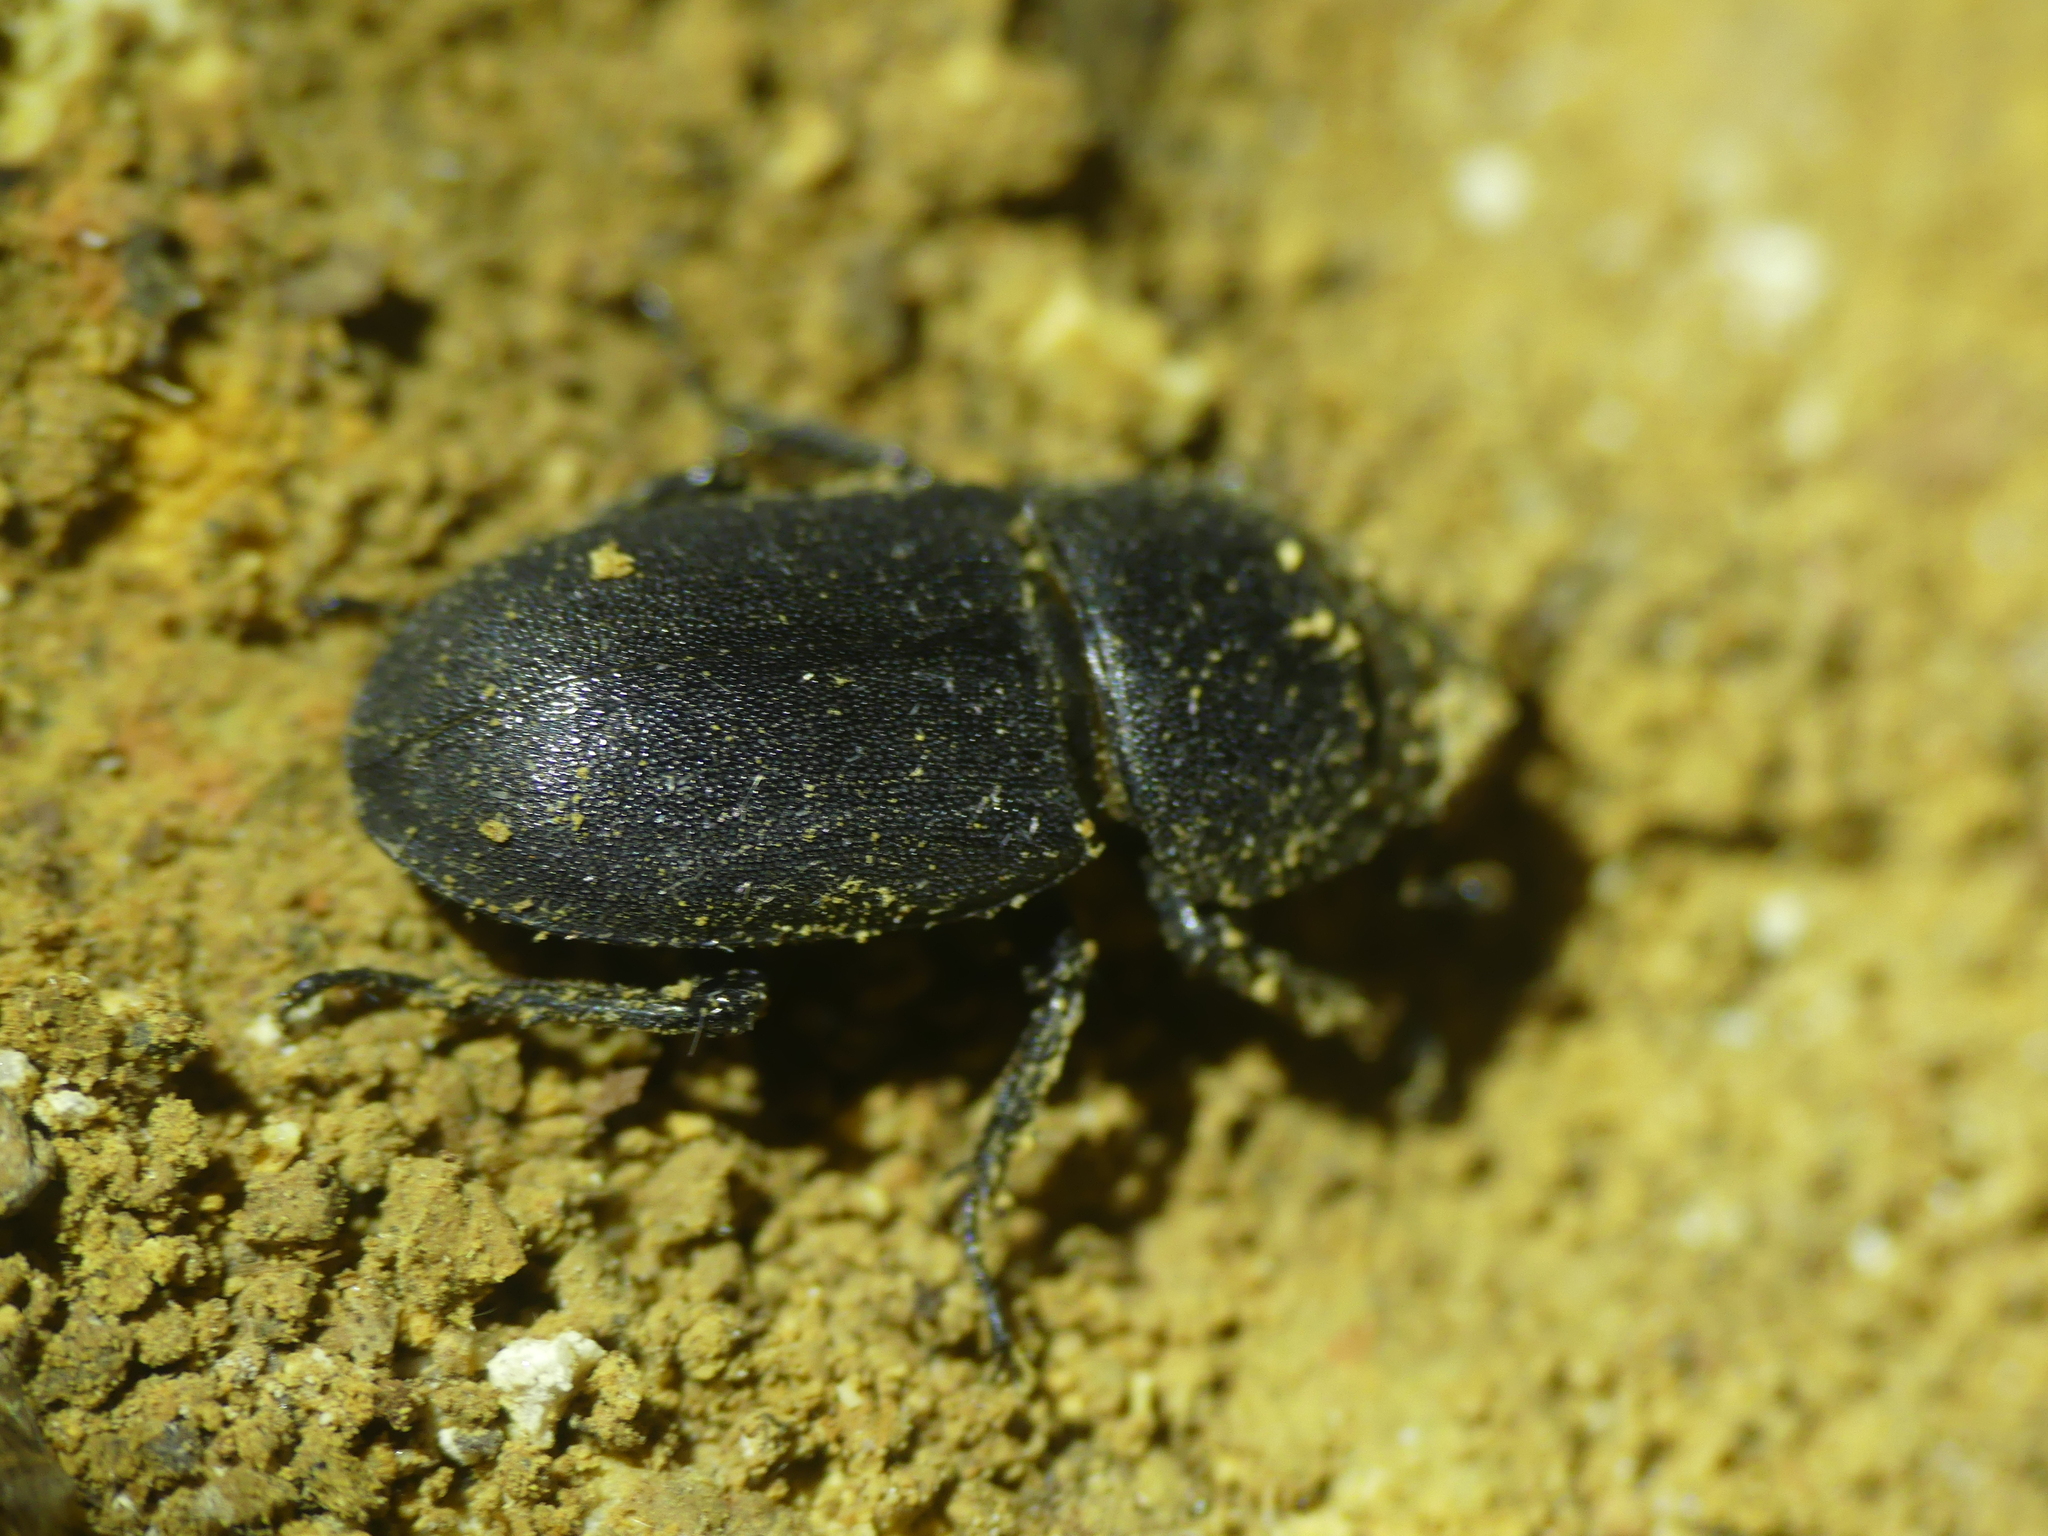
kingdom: Animalia
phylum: Arthropoda
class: Insecta
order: Coleoptera
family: Lucanidae
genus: Dorcus
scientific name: Dorcus parallelipipedus
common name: Lesser stag beetle
